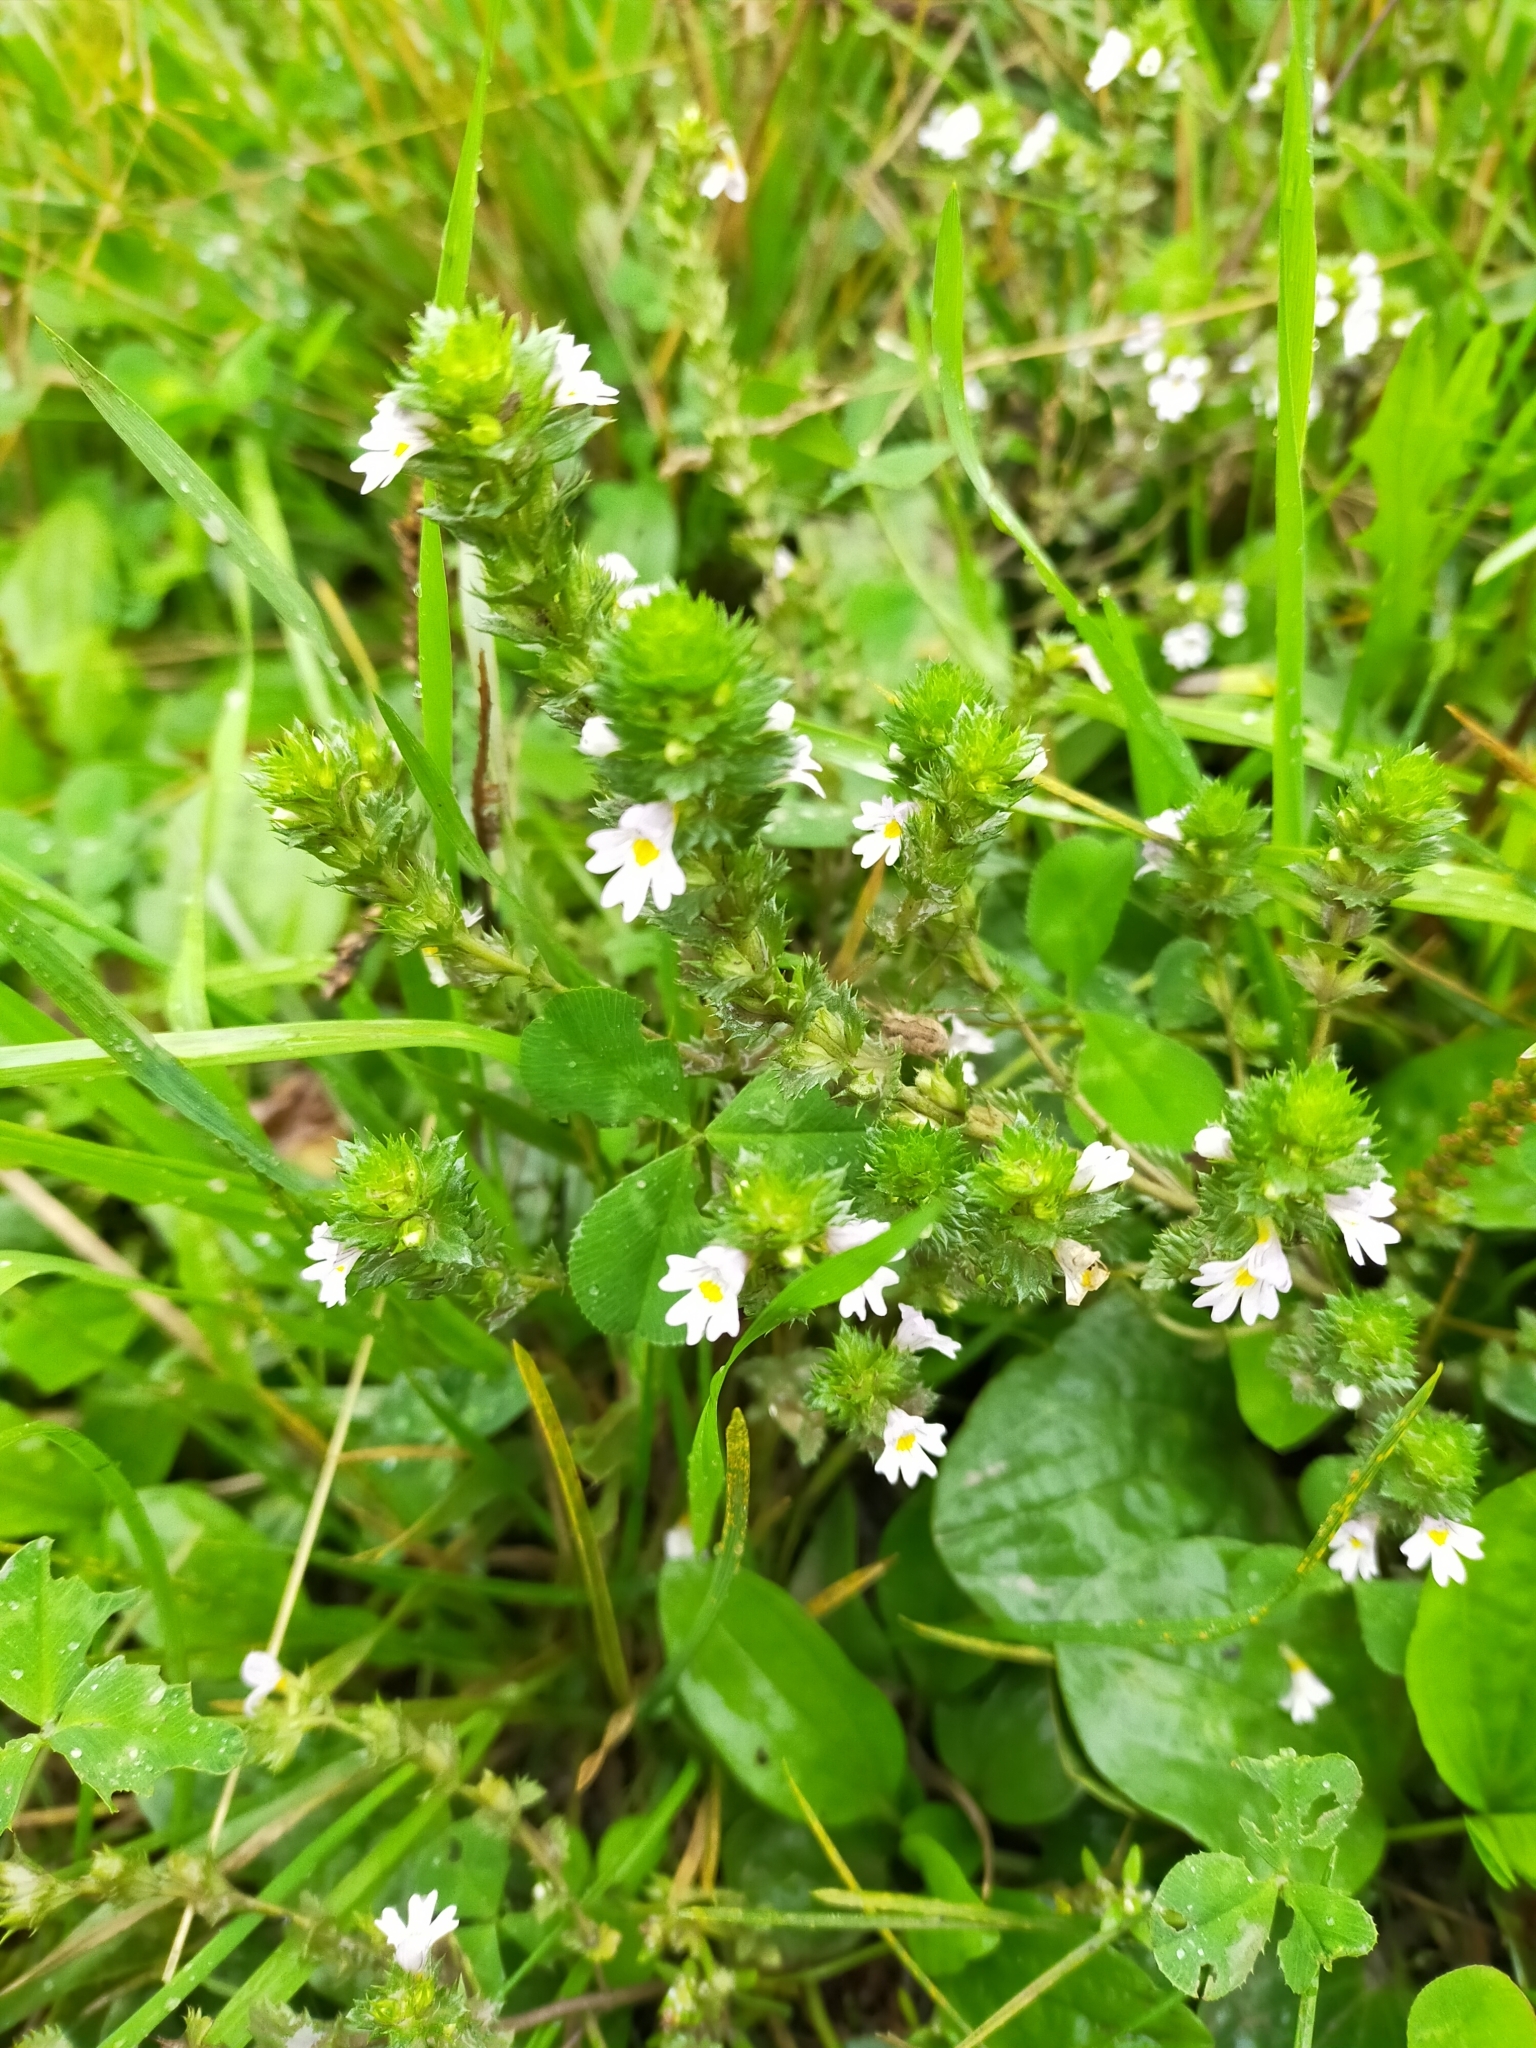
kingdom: Plantae
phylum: Tracheophyta
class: Magnoliopsida
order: Lamiales
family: Orobanchaceae
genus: Euphrasia
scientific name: Euphrasia maximowiczii
